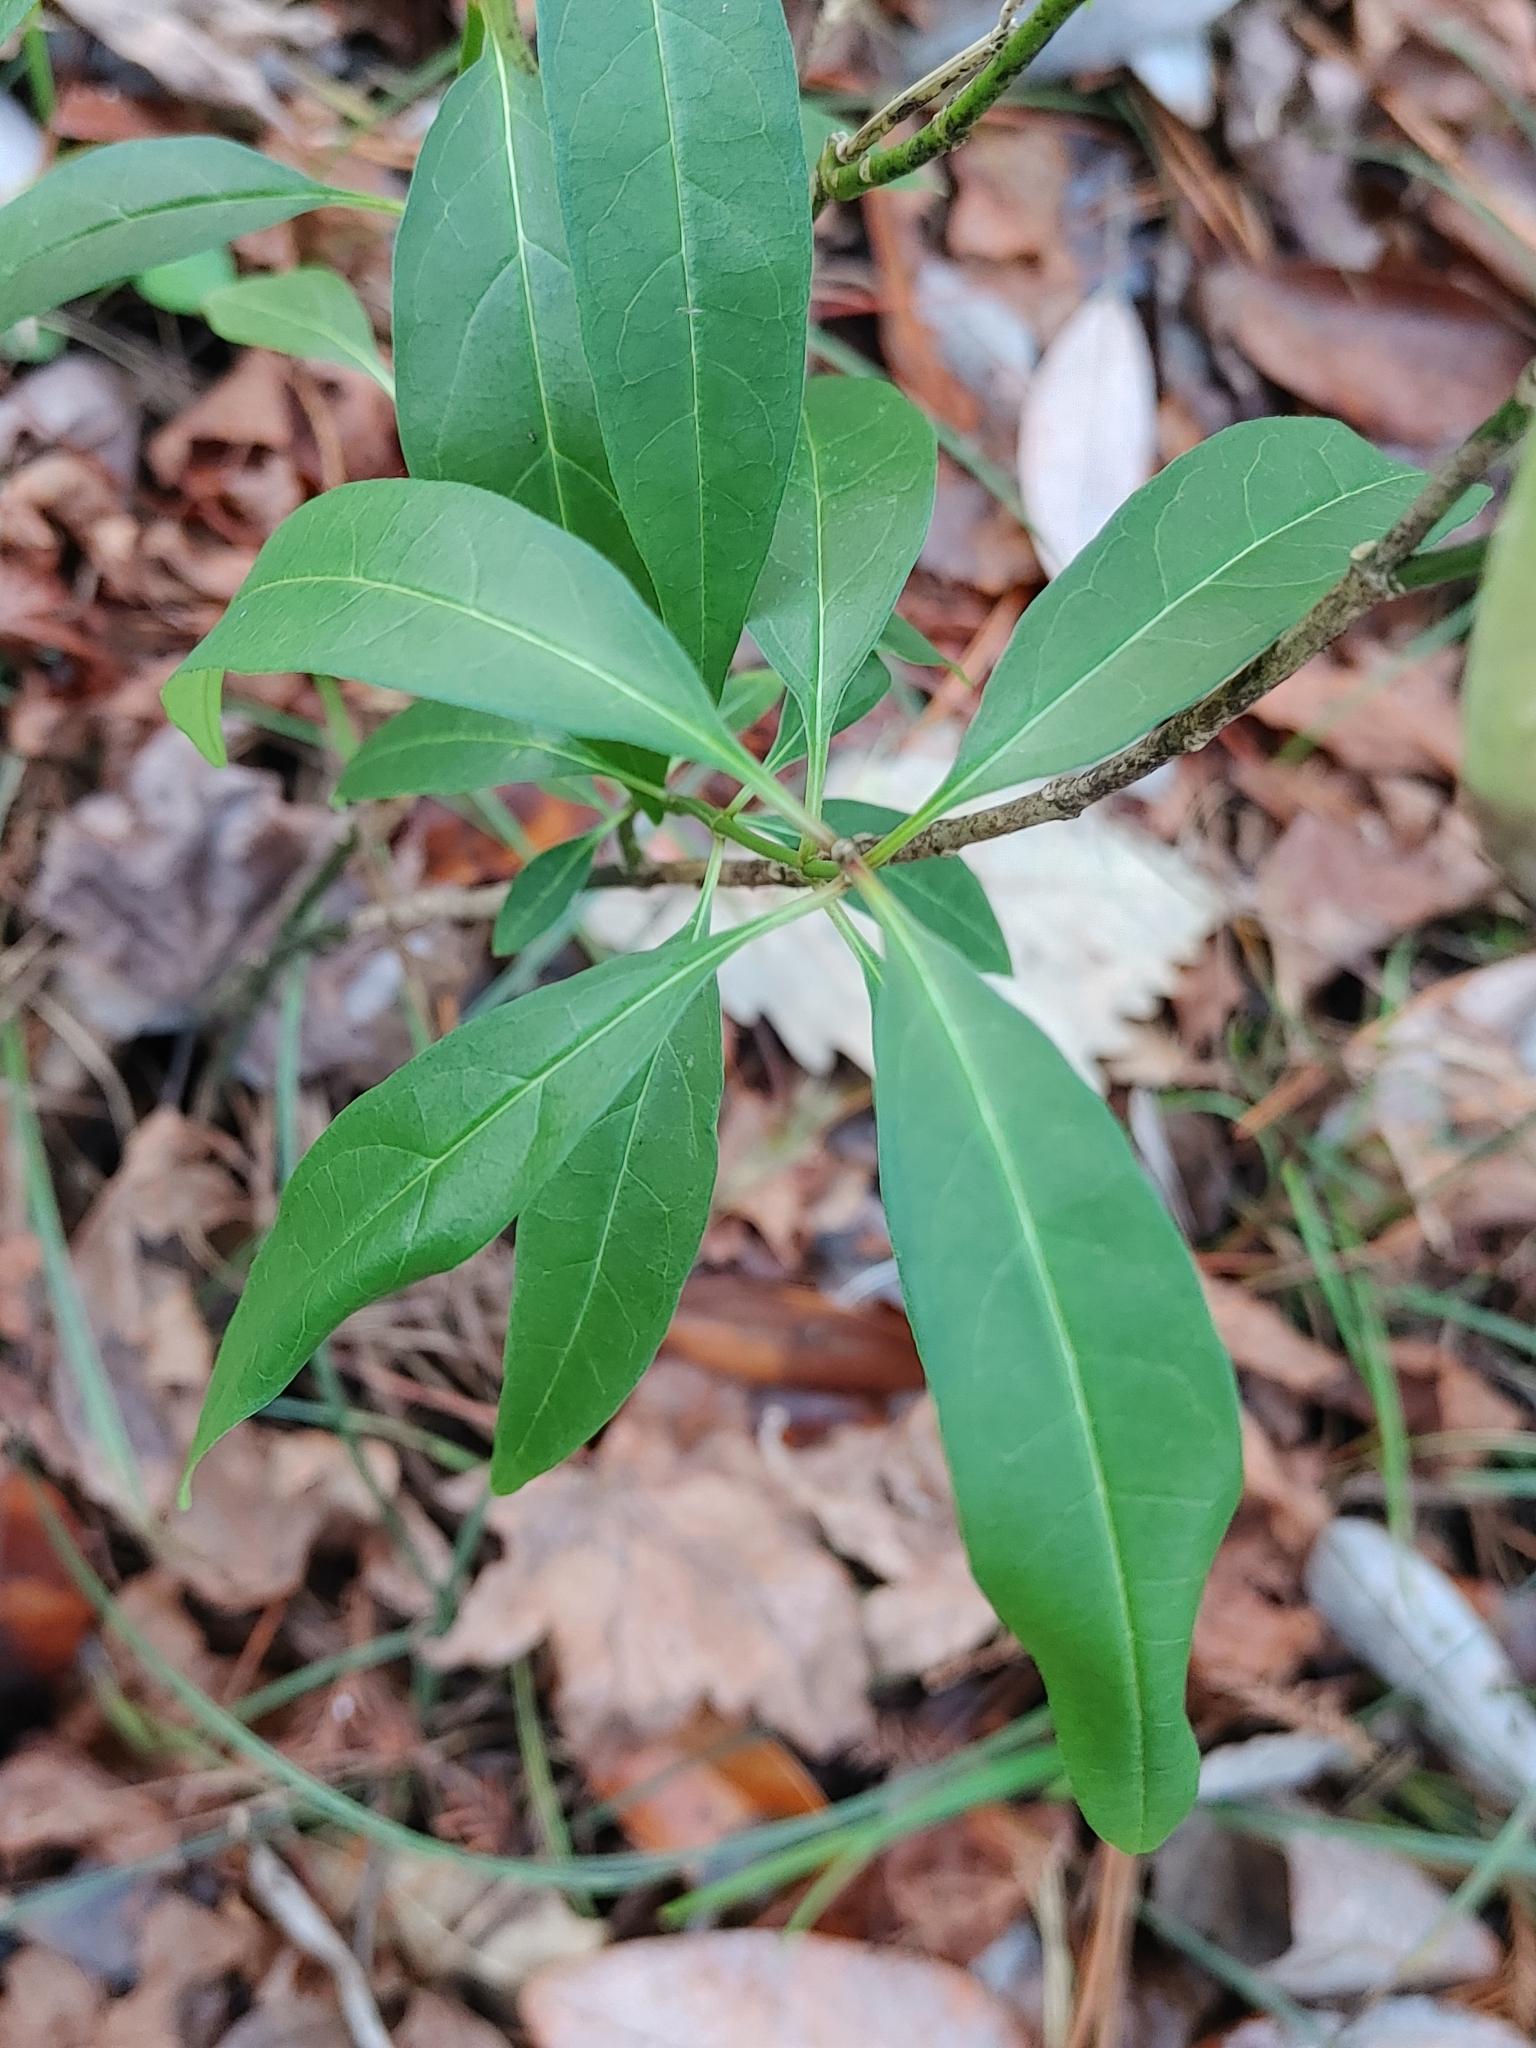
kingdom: Plantae
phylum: Tracheophyta
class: Magnoliopsida
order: Gentianales
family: Apocynaceae
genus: Asclepias
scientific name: Asclepias perennis
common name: Smooth-seed milkweed
